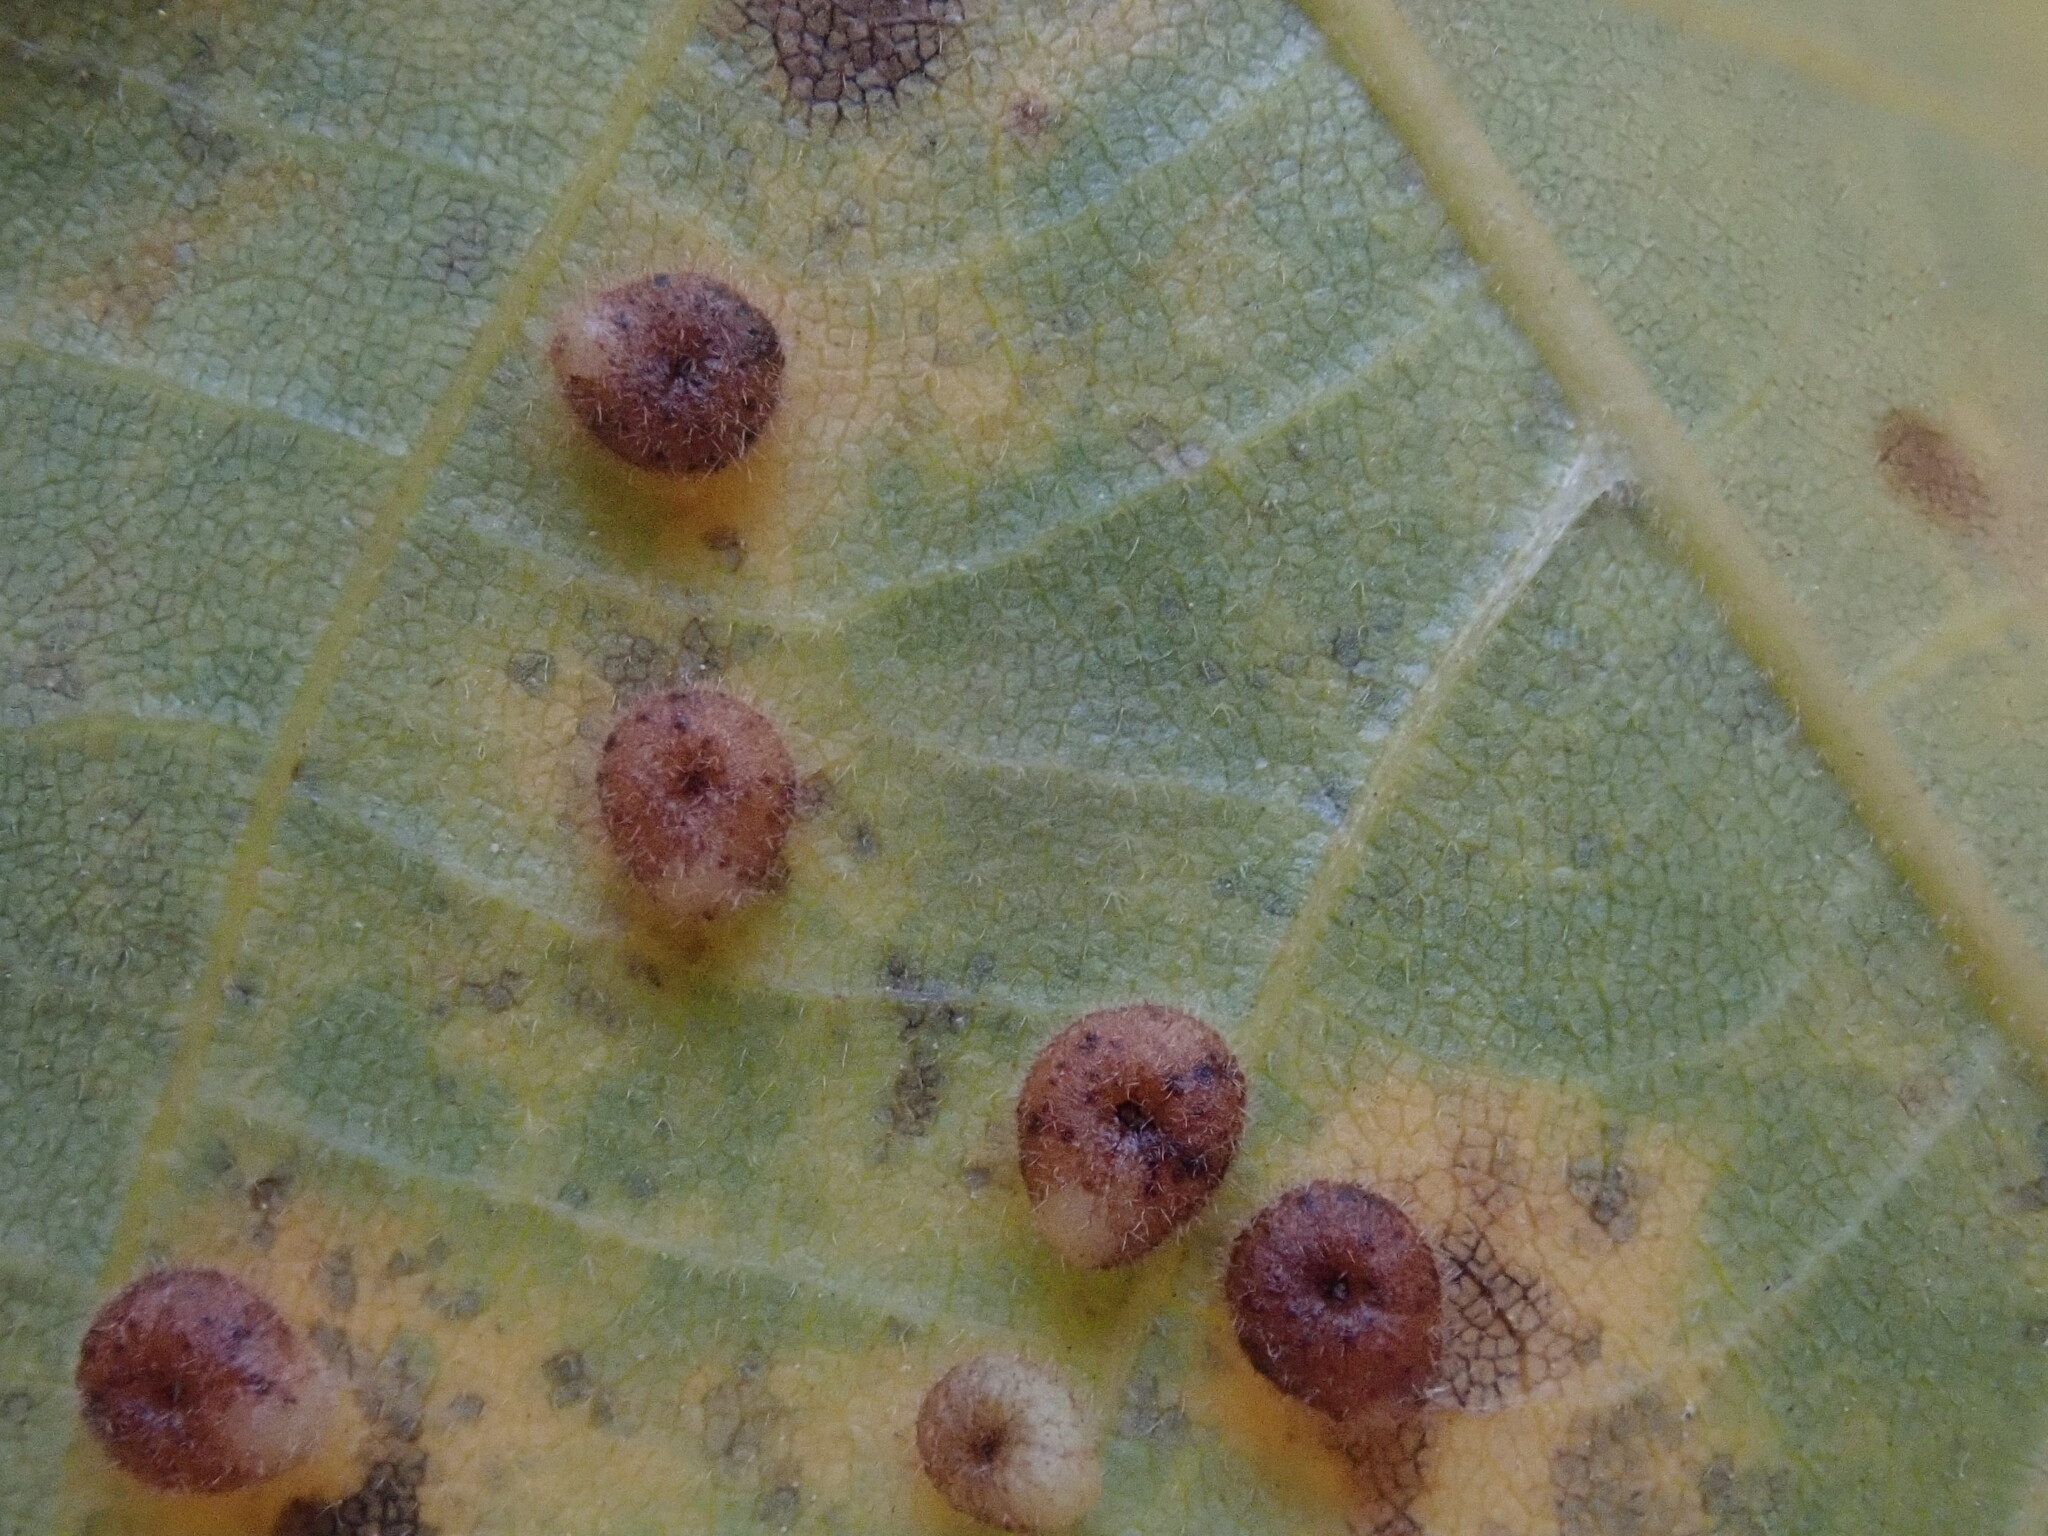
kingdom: Animalia
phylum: Arthropoda
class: Insecta
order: Diptera
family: Cecidomyiidae
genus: Caryomyia
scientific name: Caryomyia thompsoni
